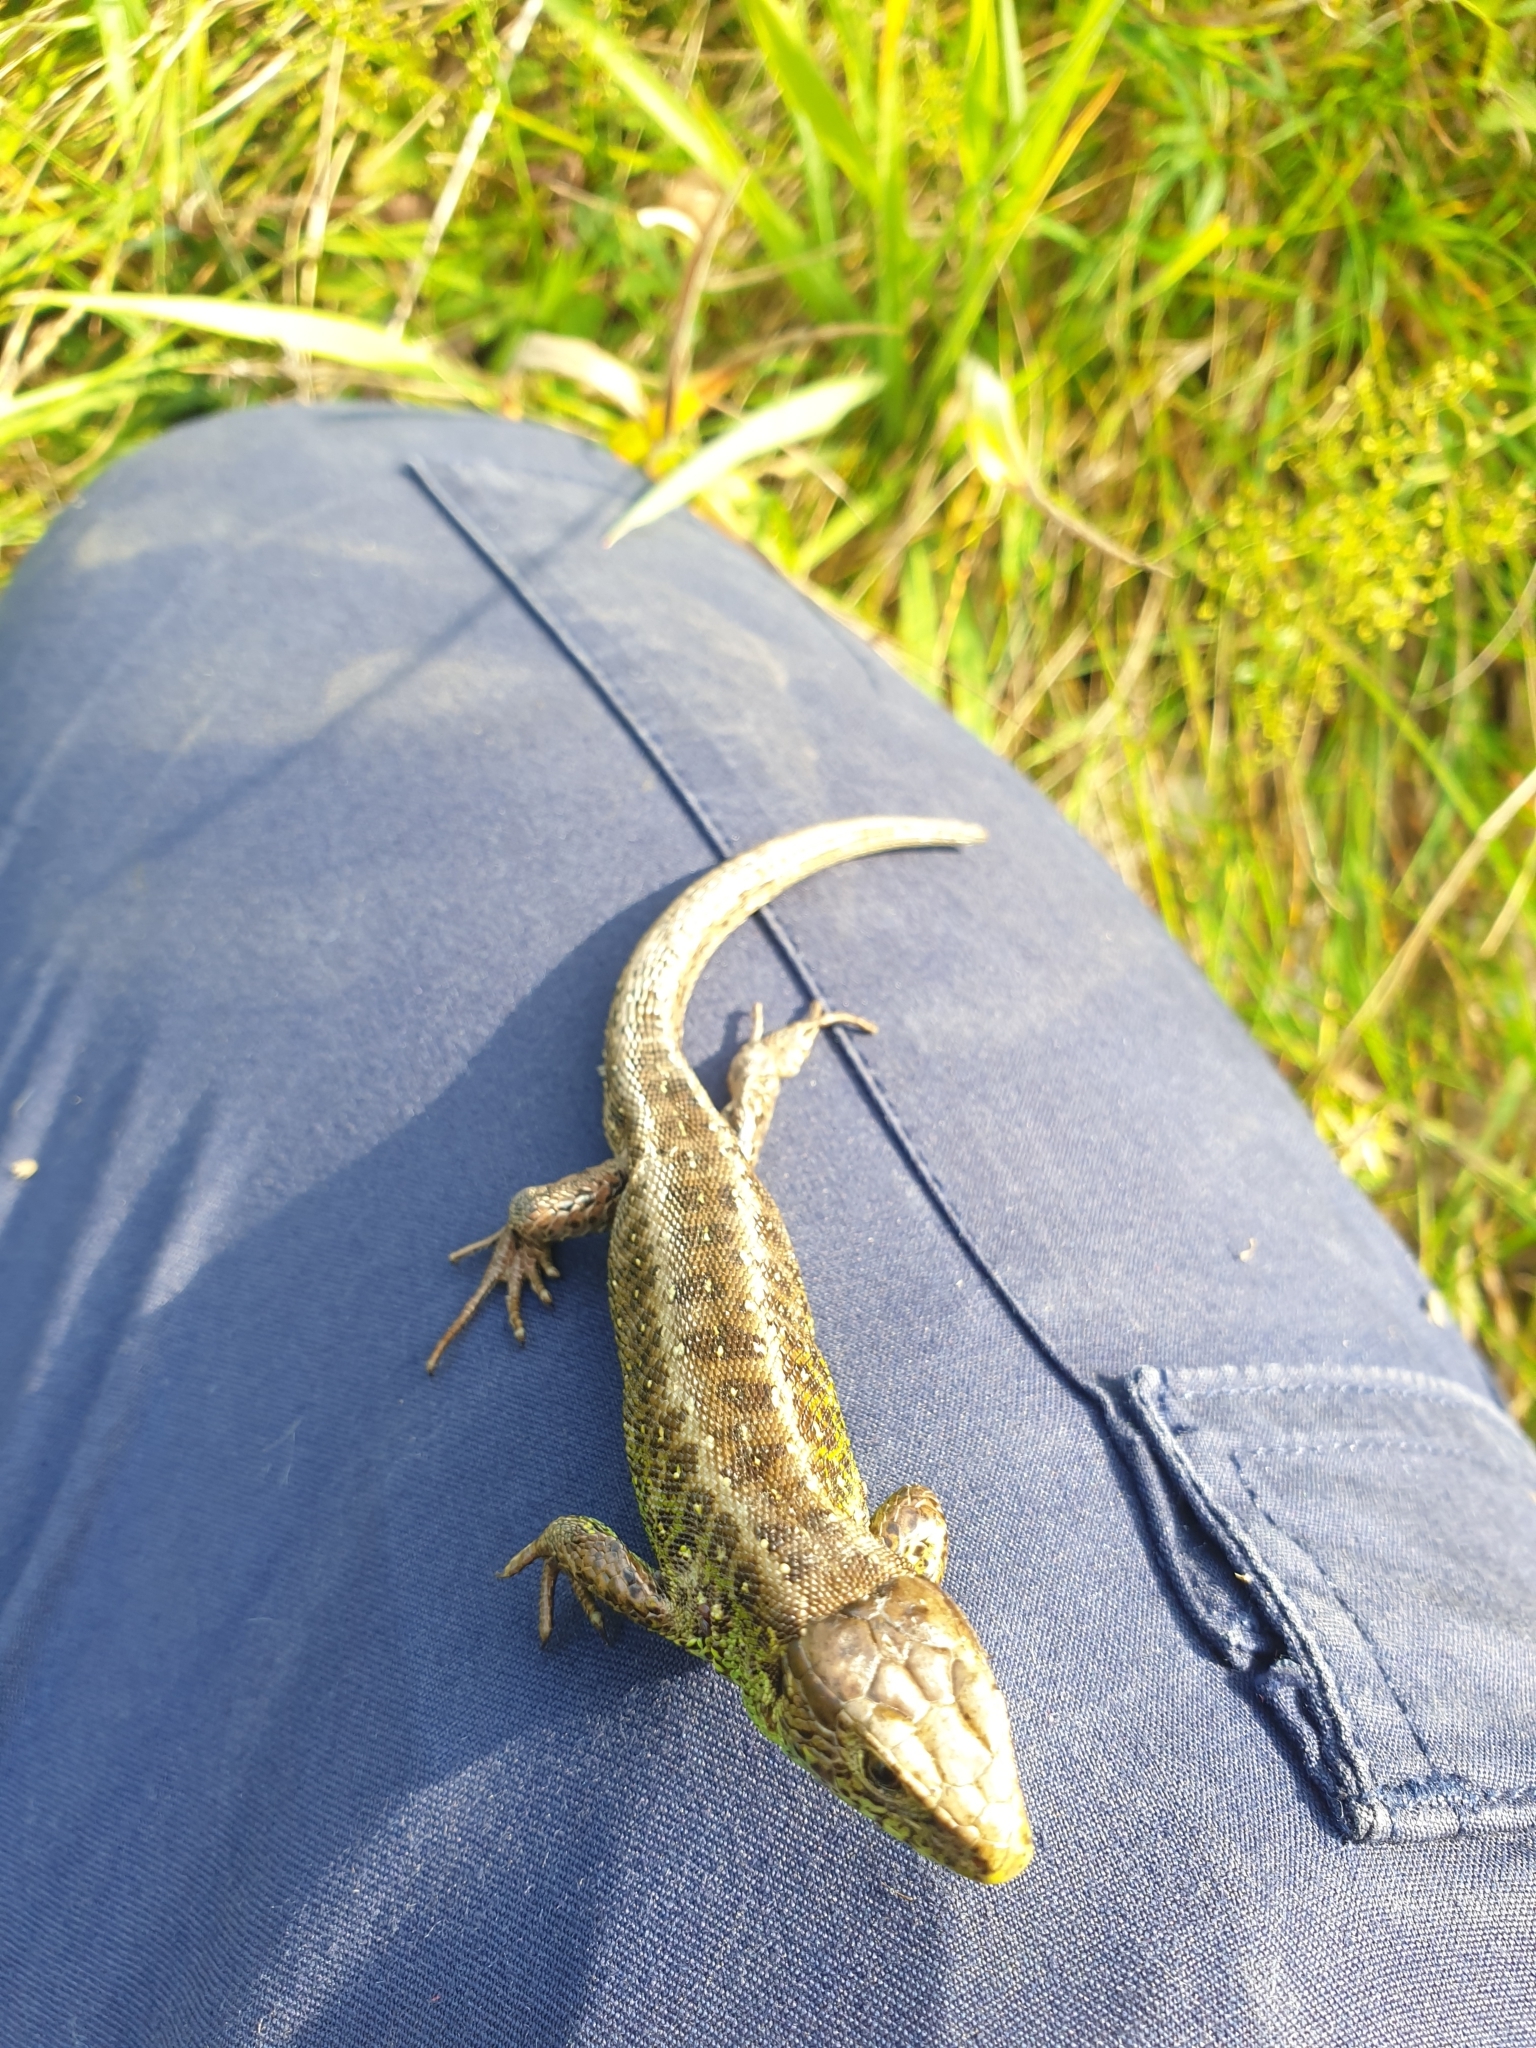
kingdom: Animalia
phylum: Chordata
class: Squamata
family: Lacertidae
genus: Lacerta
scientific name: Lacerta agilis
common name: Sand lizard
